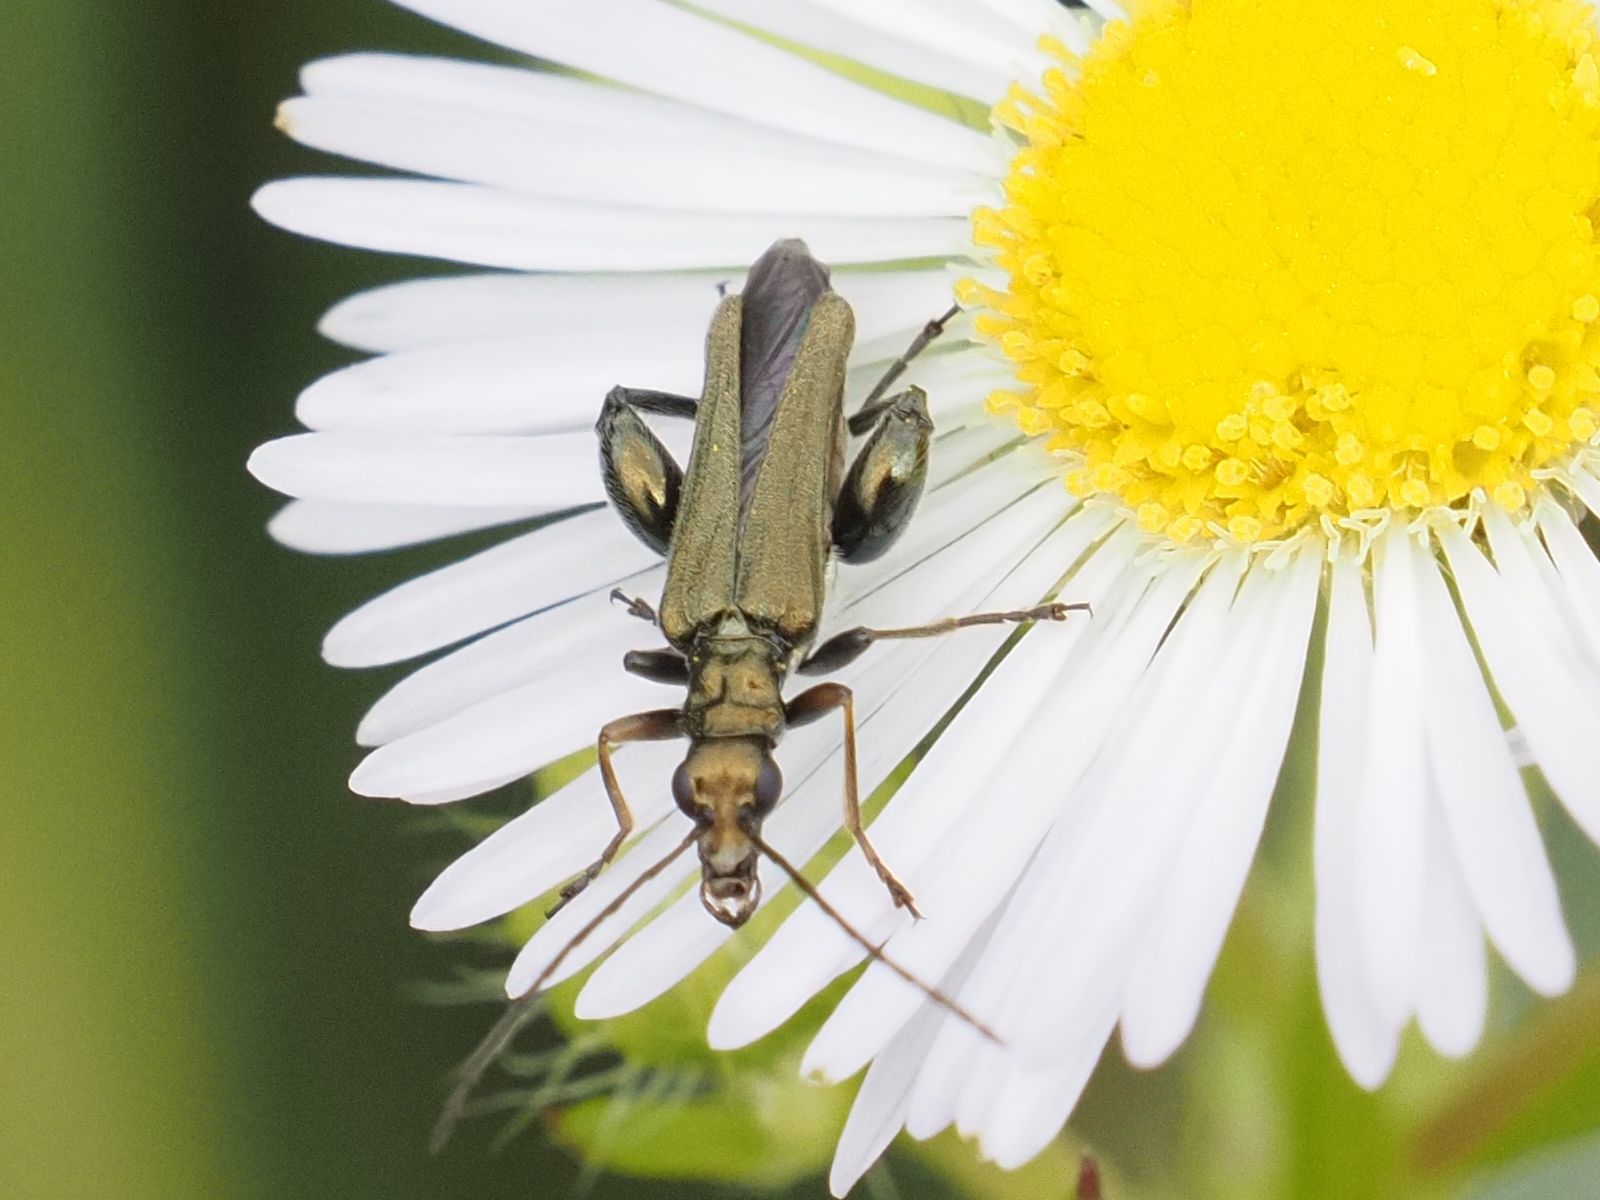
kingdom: Animalia
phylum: Arthropoda
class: Insecta
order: Coleoptera
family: Oedemeridae
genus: Oedemera
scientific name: Oedemera flavipes
